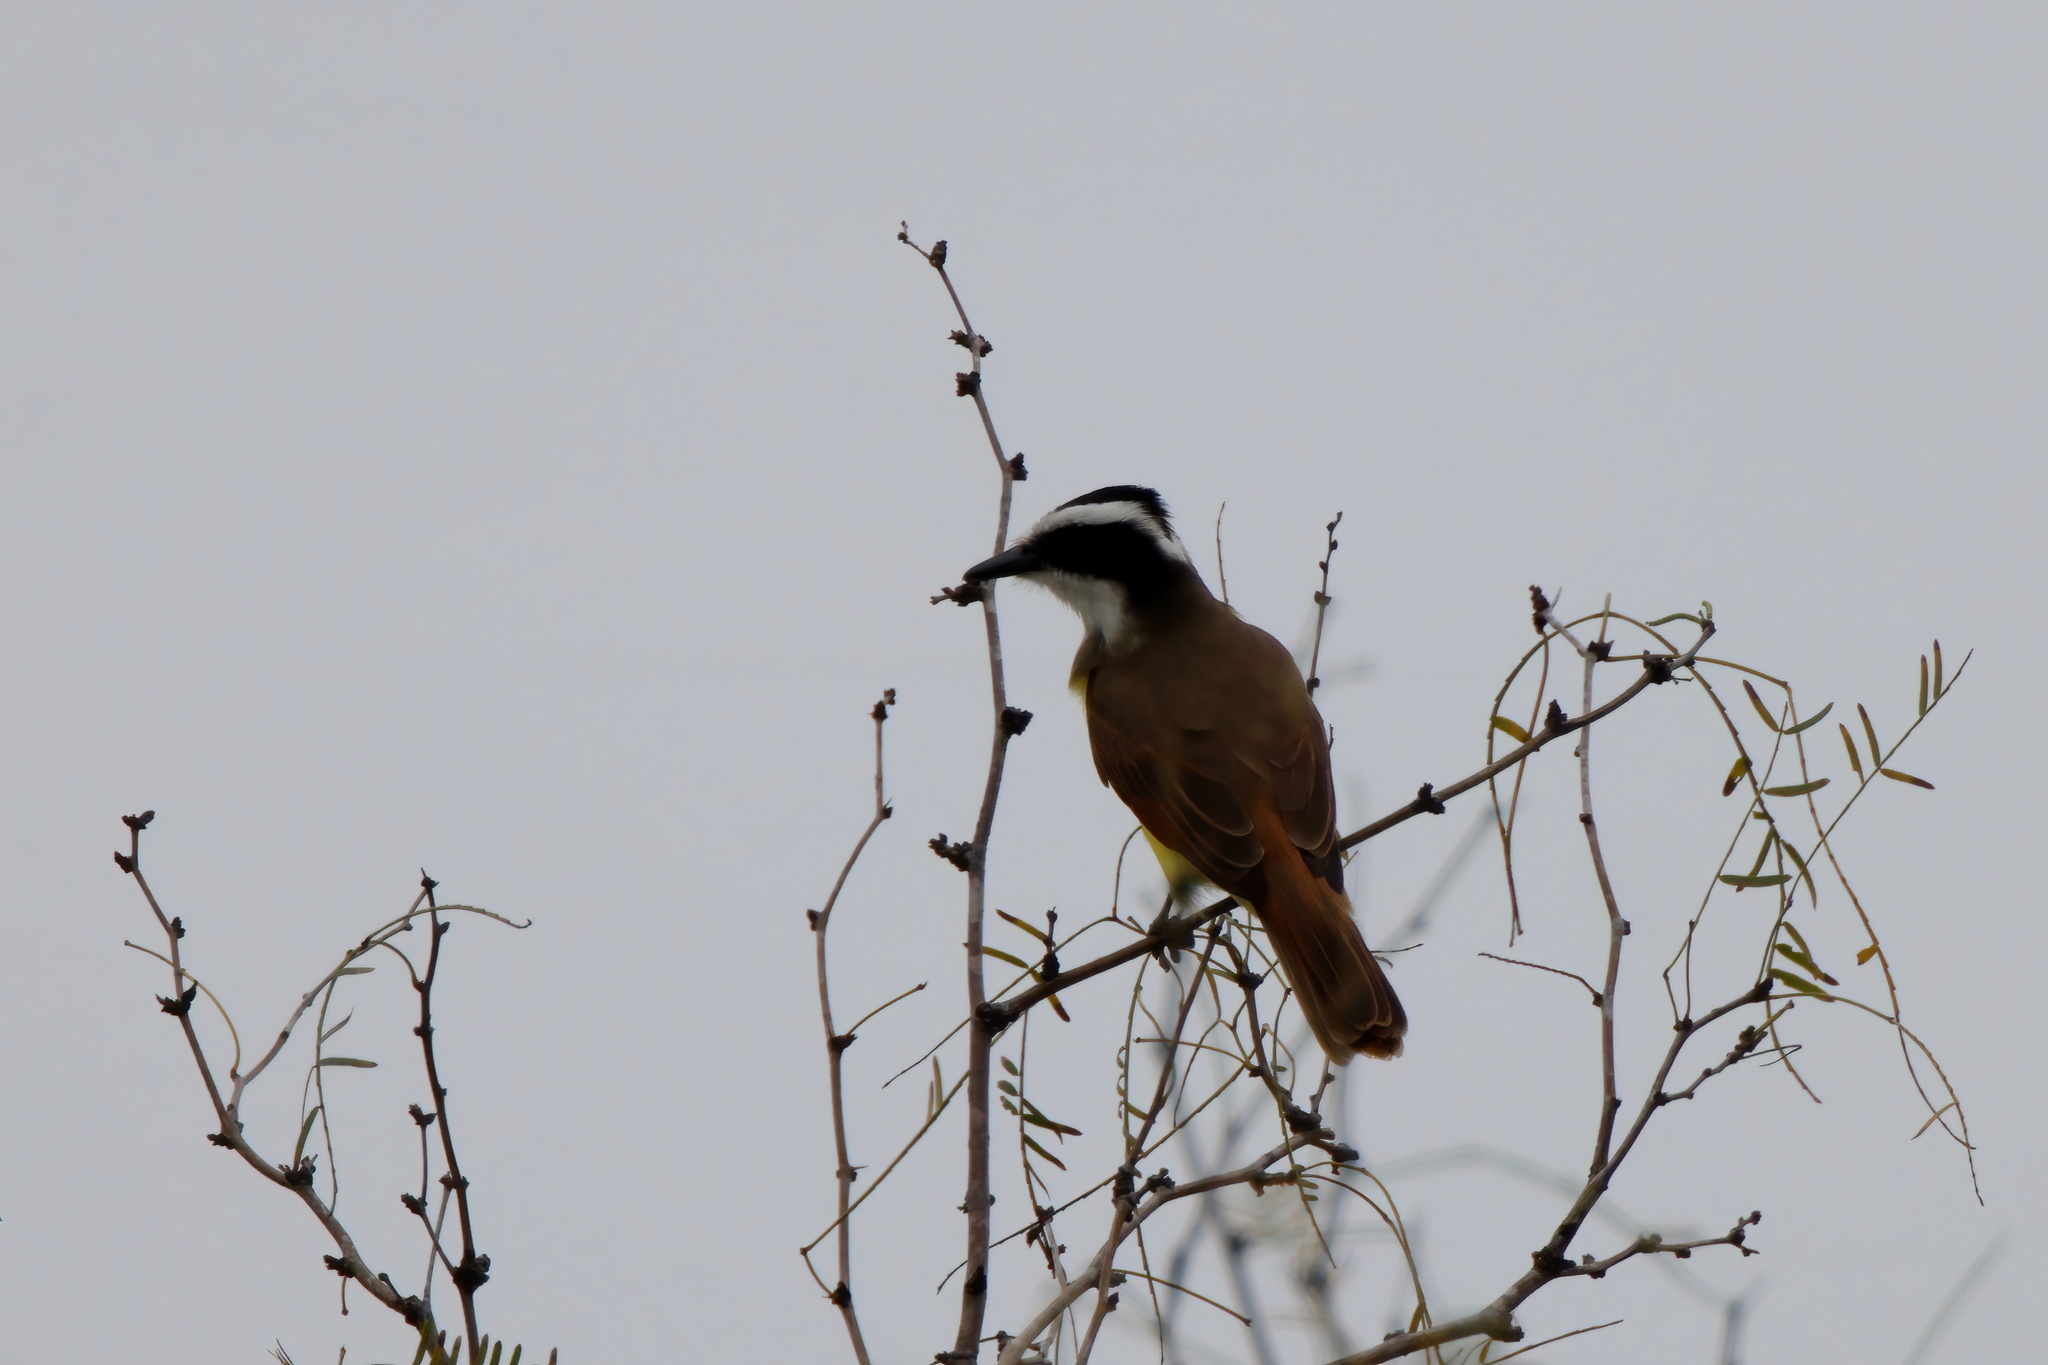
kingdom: Animalia
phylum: Chordata
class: Aves
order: Passeriformes
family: Tyrannidae
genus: Pitangus
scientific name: Pitangus sulphuratus
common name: Great kiskadee
